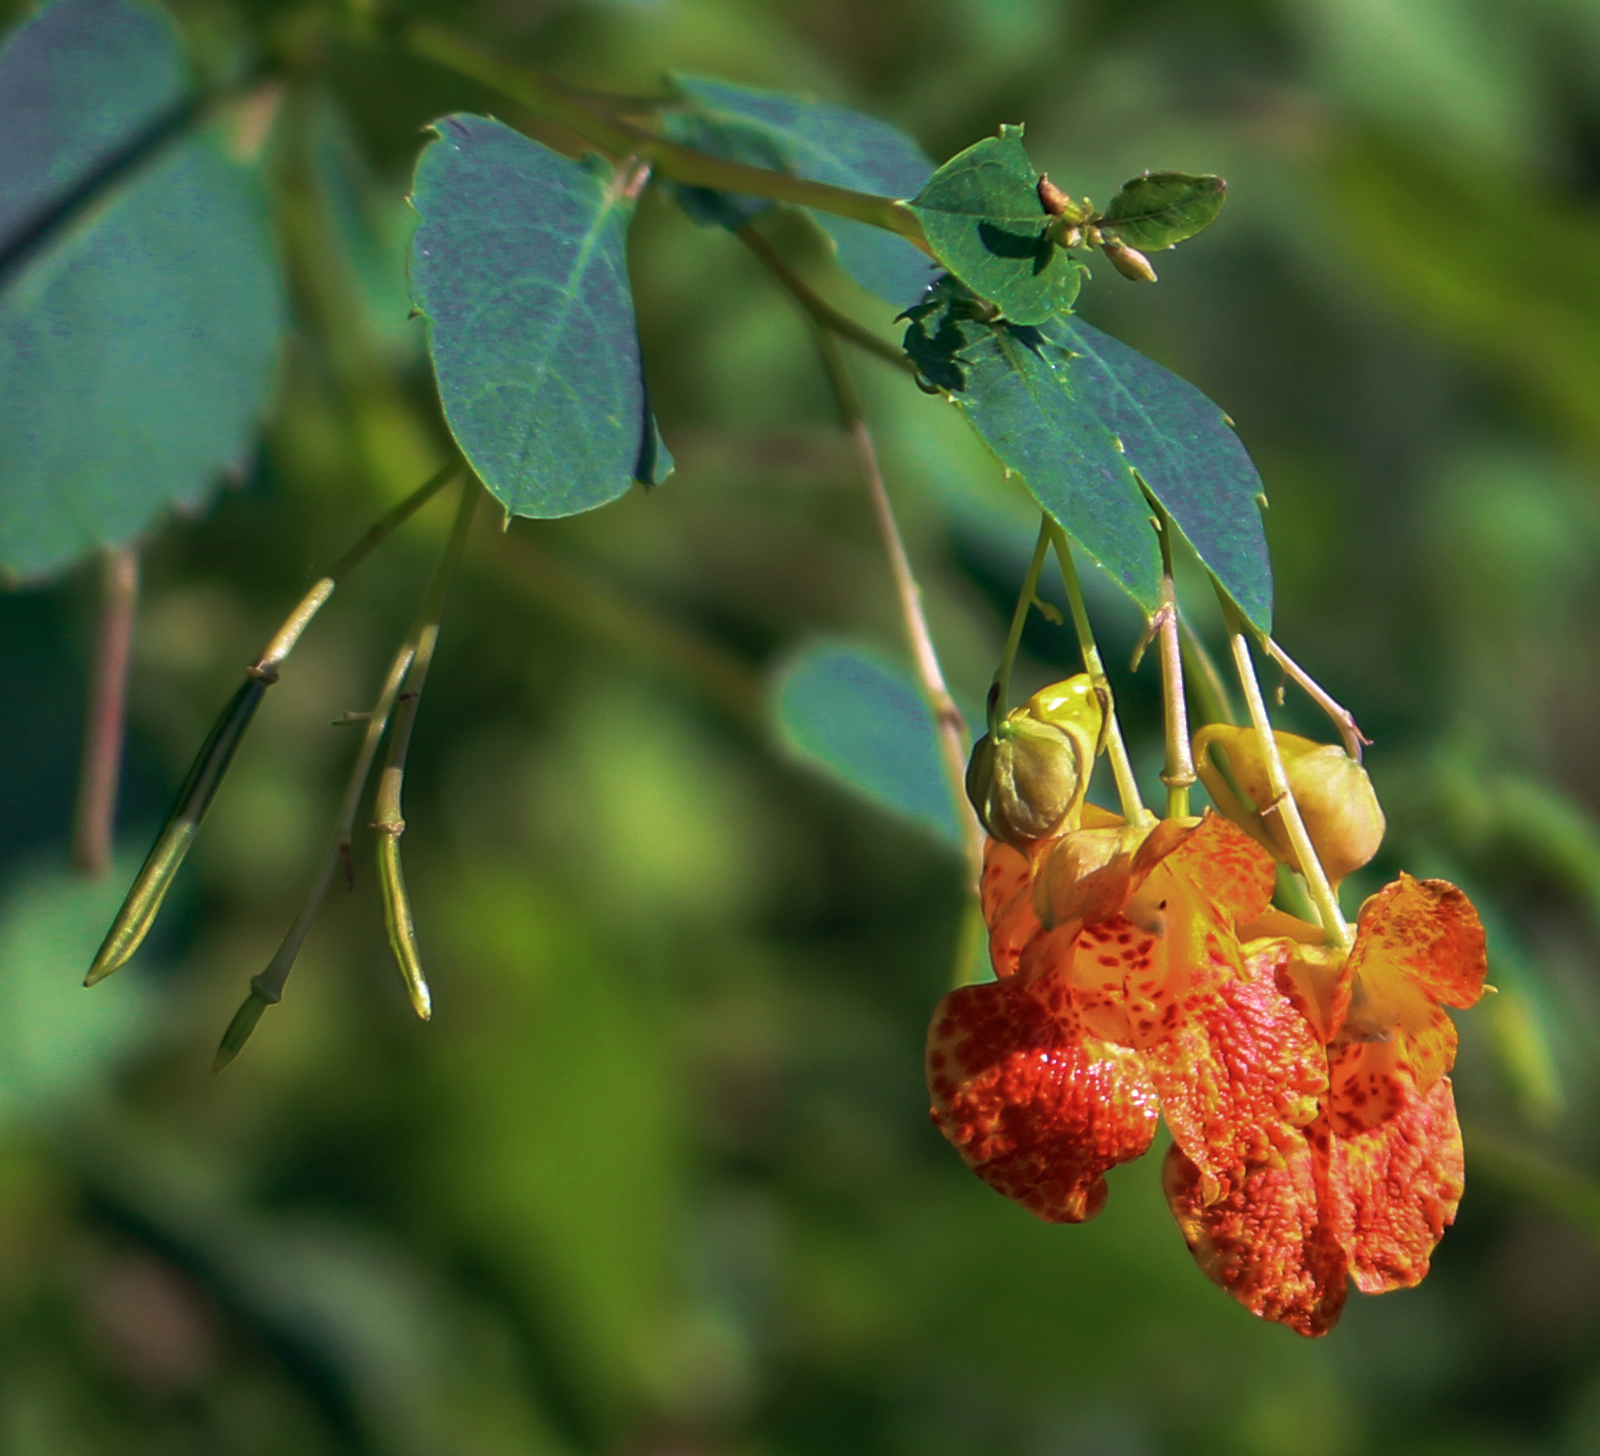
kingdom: Plantae
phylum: Tracheophyta
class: Magnoliopsida
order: Ericales
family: Balsaminaceae
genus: Impatiens
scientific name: Impatiens capensis
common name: Orange balsam
